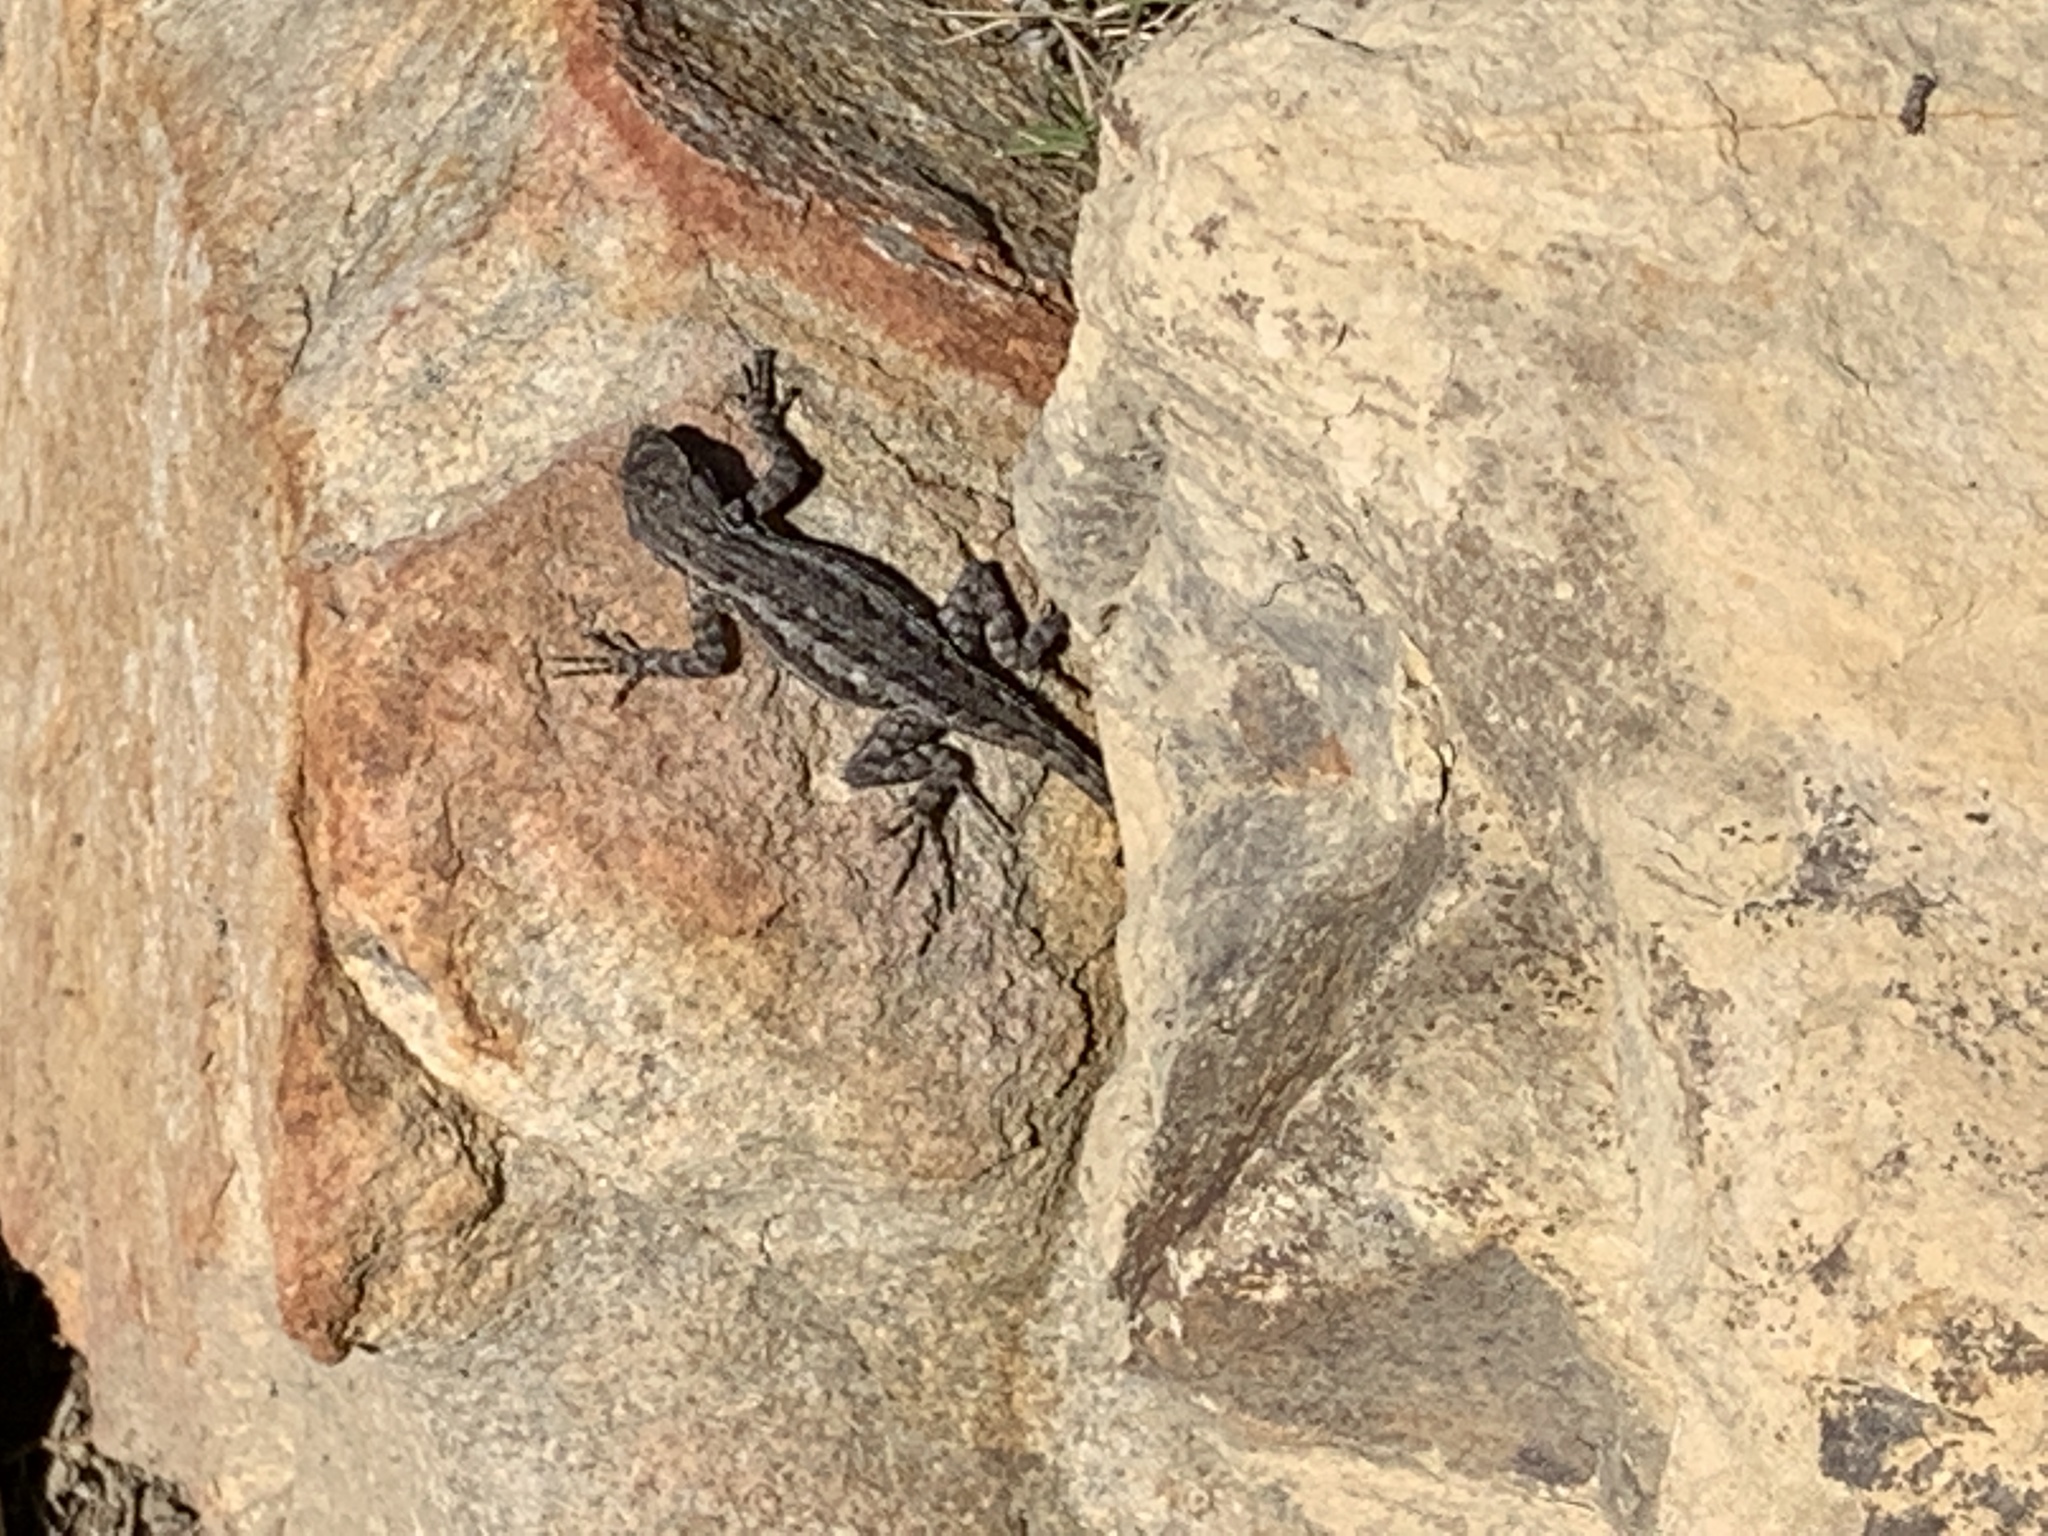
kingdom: Animalia
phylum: Chordata
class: Squamata
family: Phrynosomatidae
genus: Sceloporus
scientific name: Sceloporus occidentalis
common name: Western fence lizard
